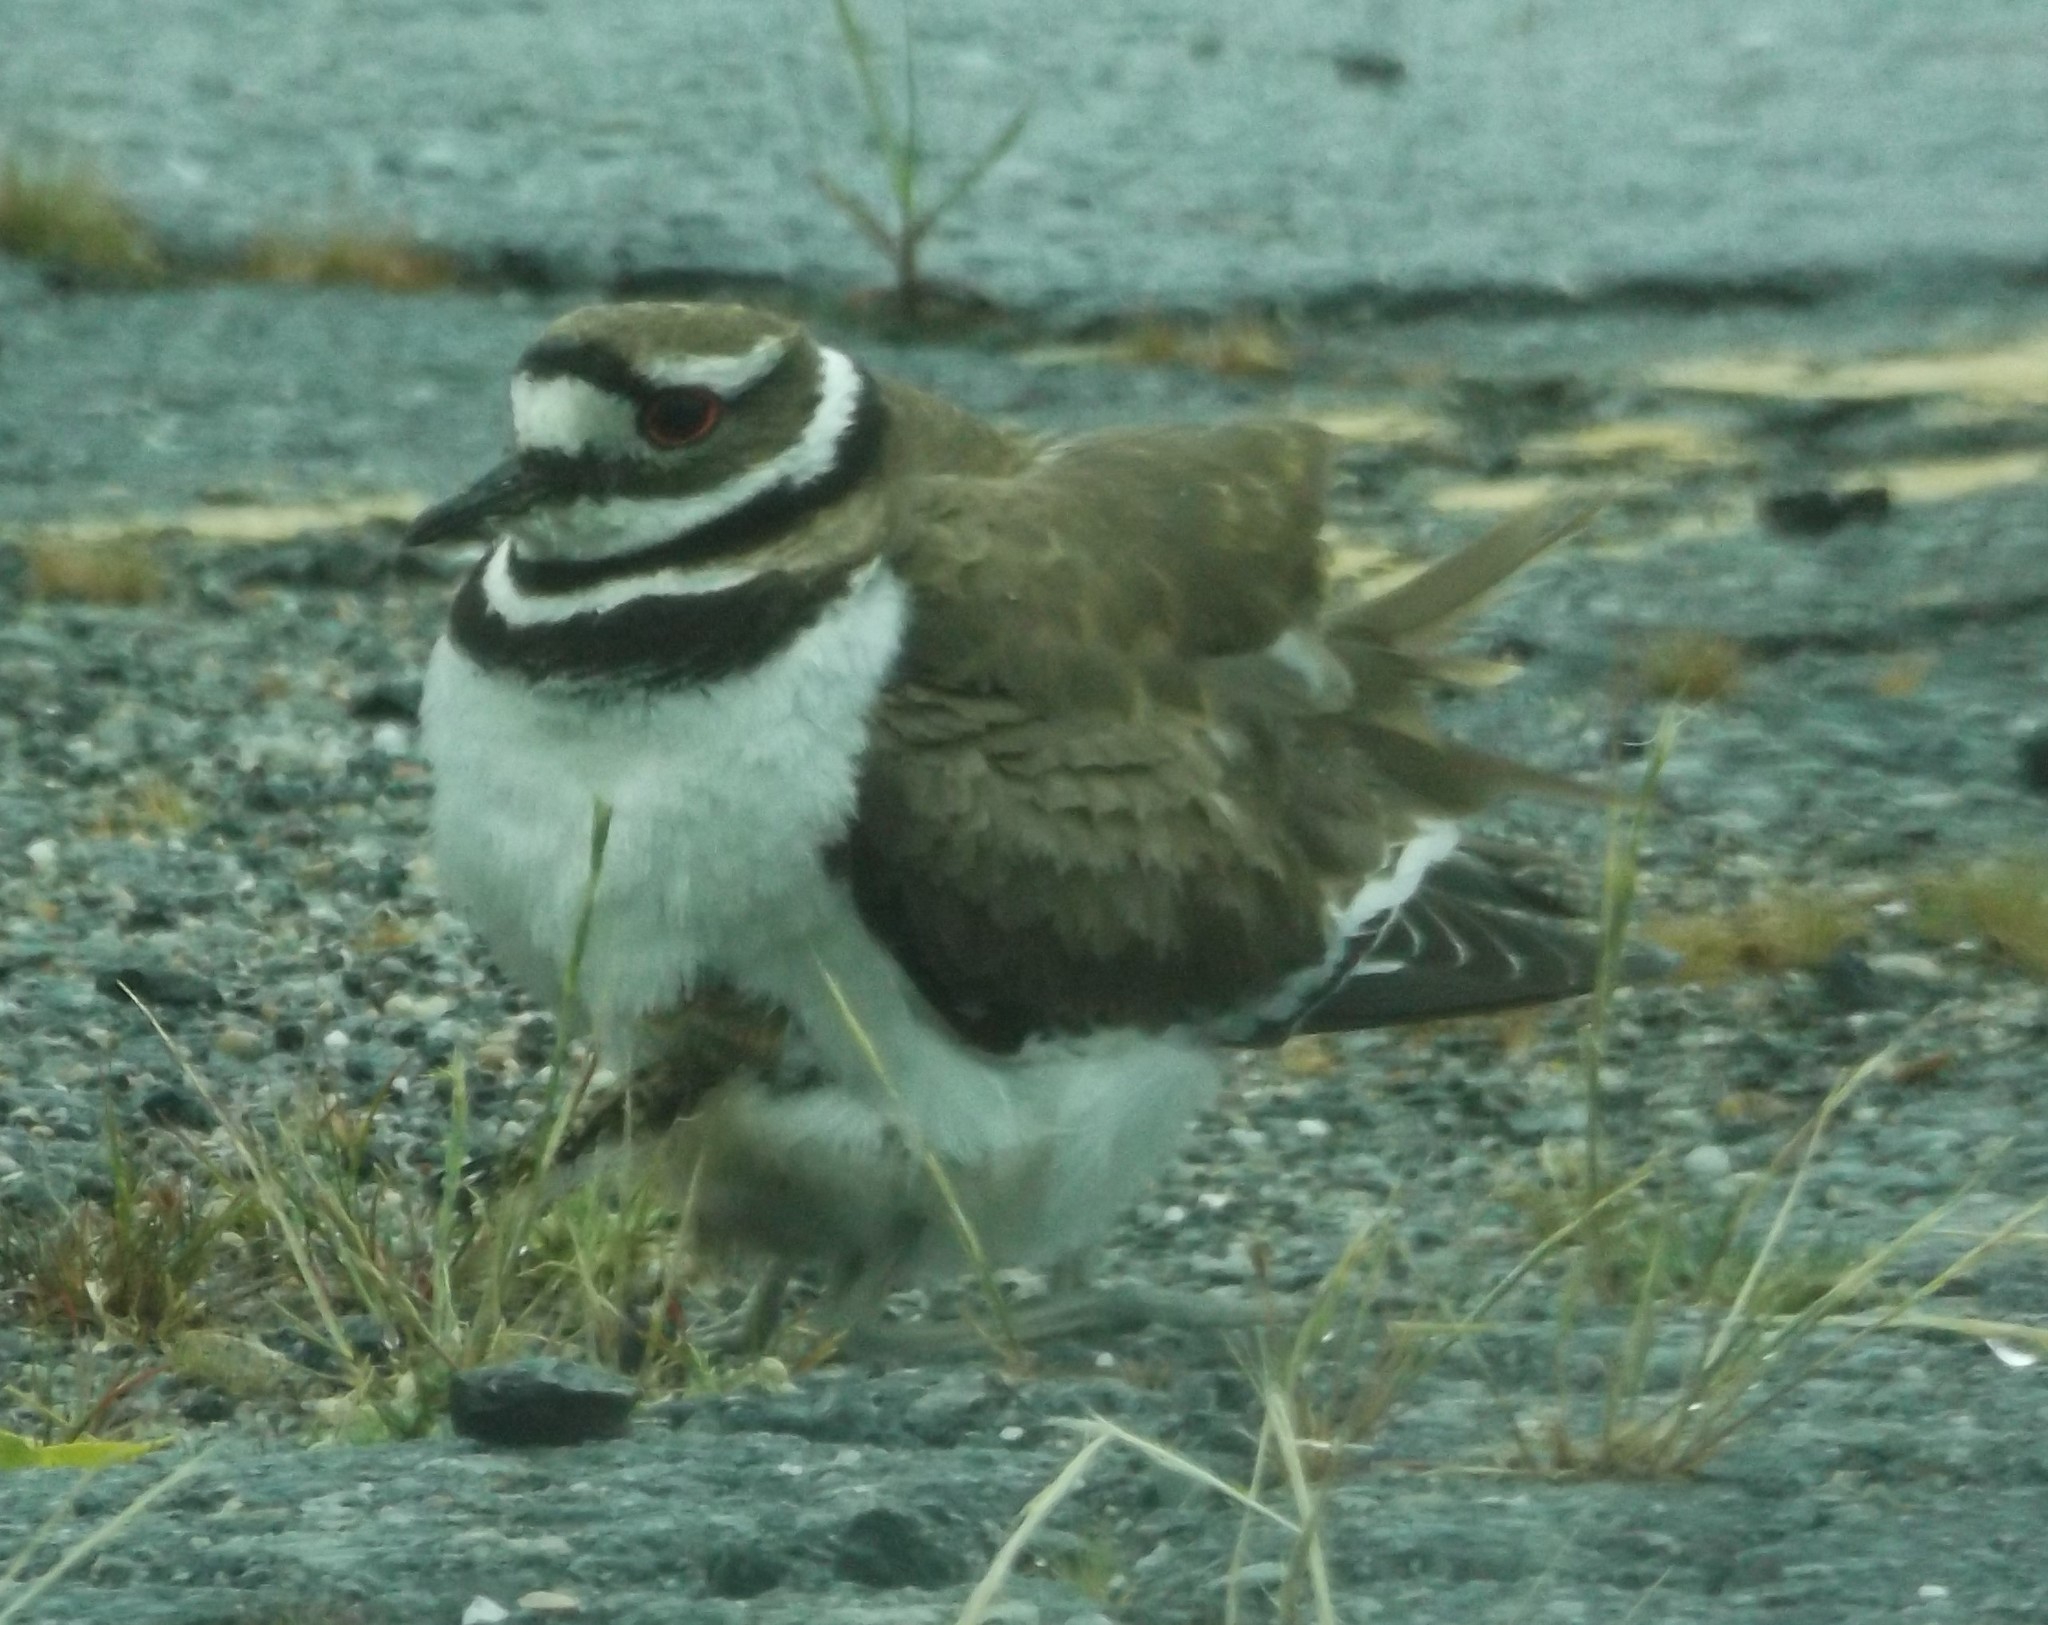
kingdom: Animalia
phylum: Chordata
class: Aves
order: Charadriiformes
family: Charadriidae
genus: Charadrius
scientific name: Charadrius vociferus
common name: Killdeer
